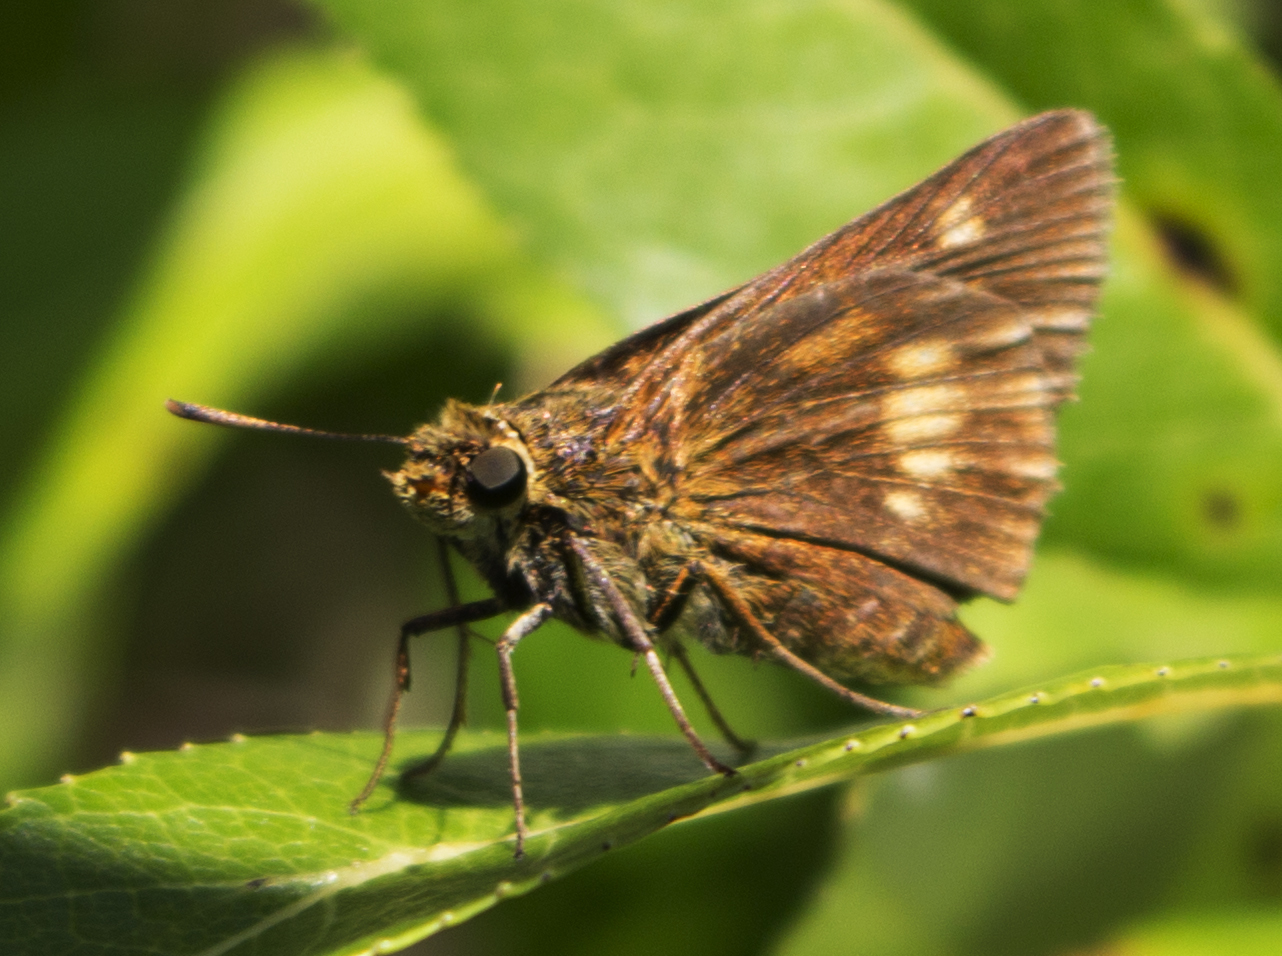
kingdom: Animalia
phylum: Arthropoda
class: Insecta
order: Lepidoptera
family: Hesperiidae
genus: Euphyes
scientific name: Euphyes conspicua
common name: Black dash
